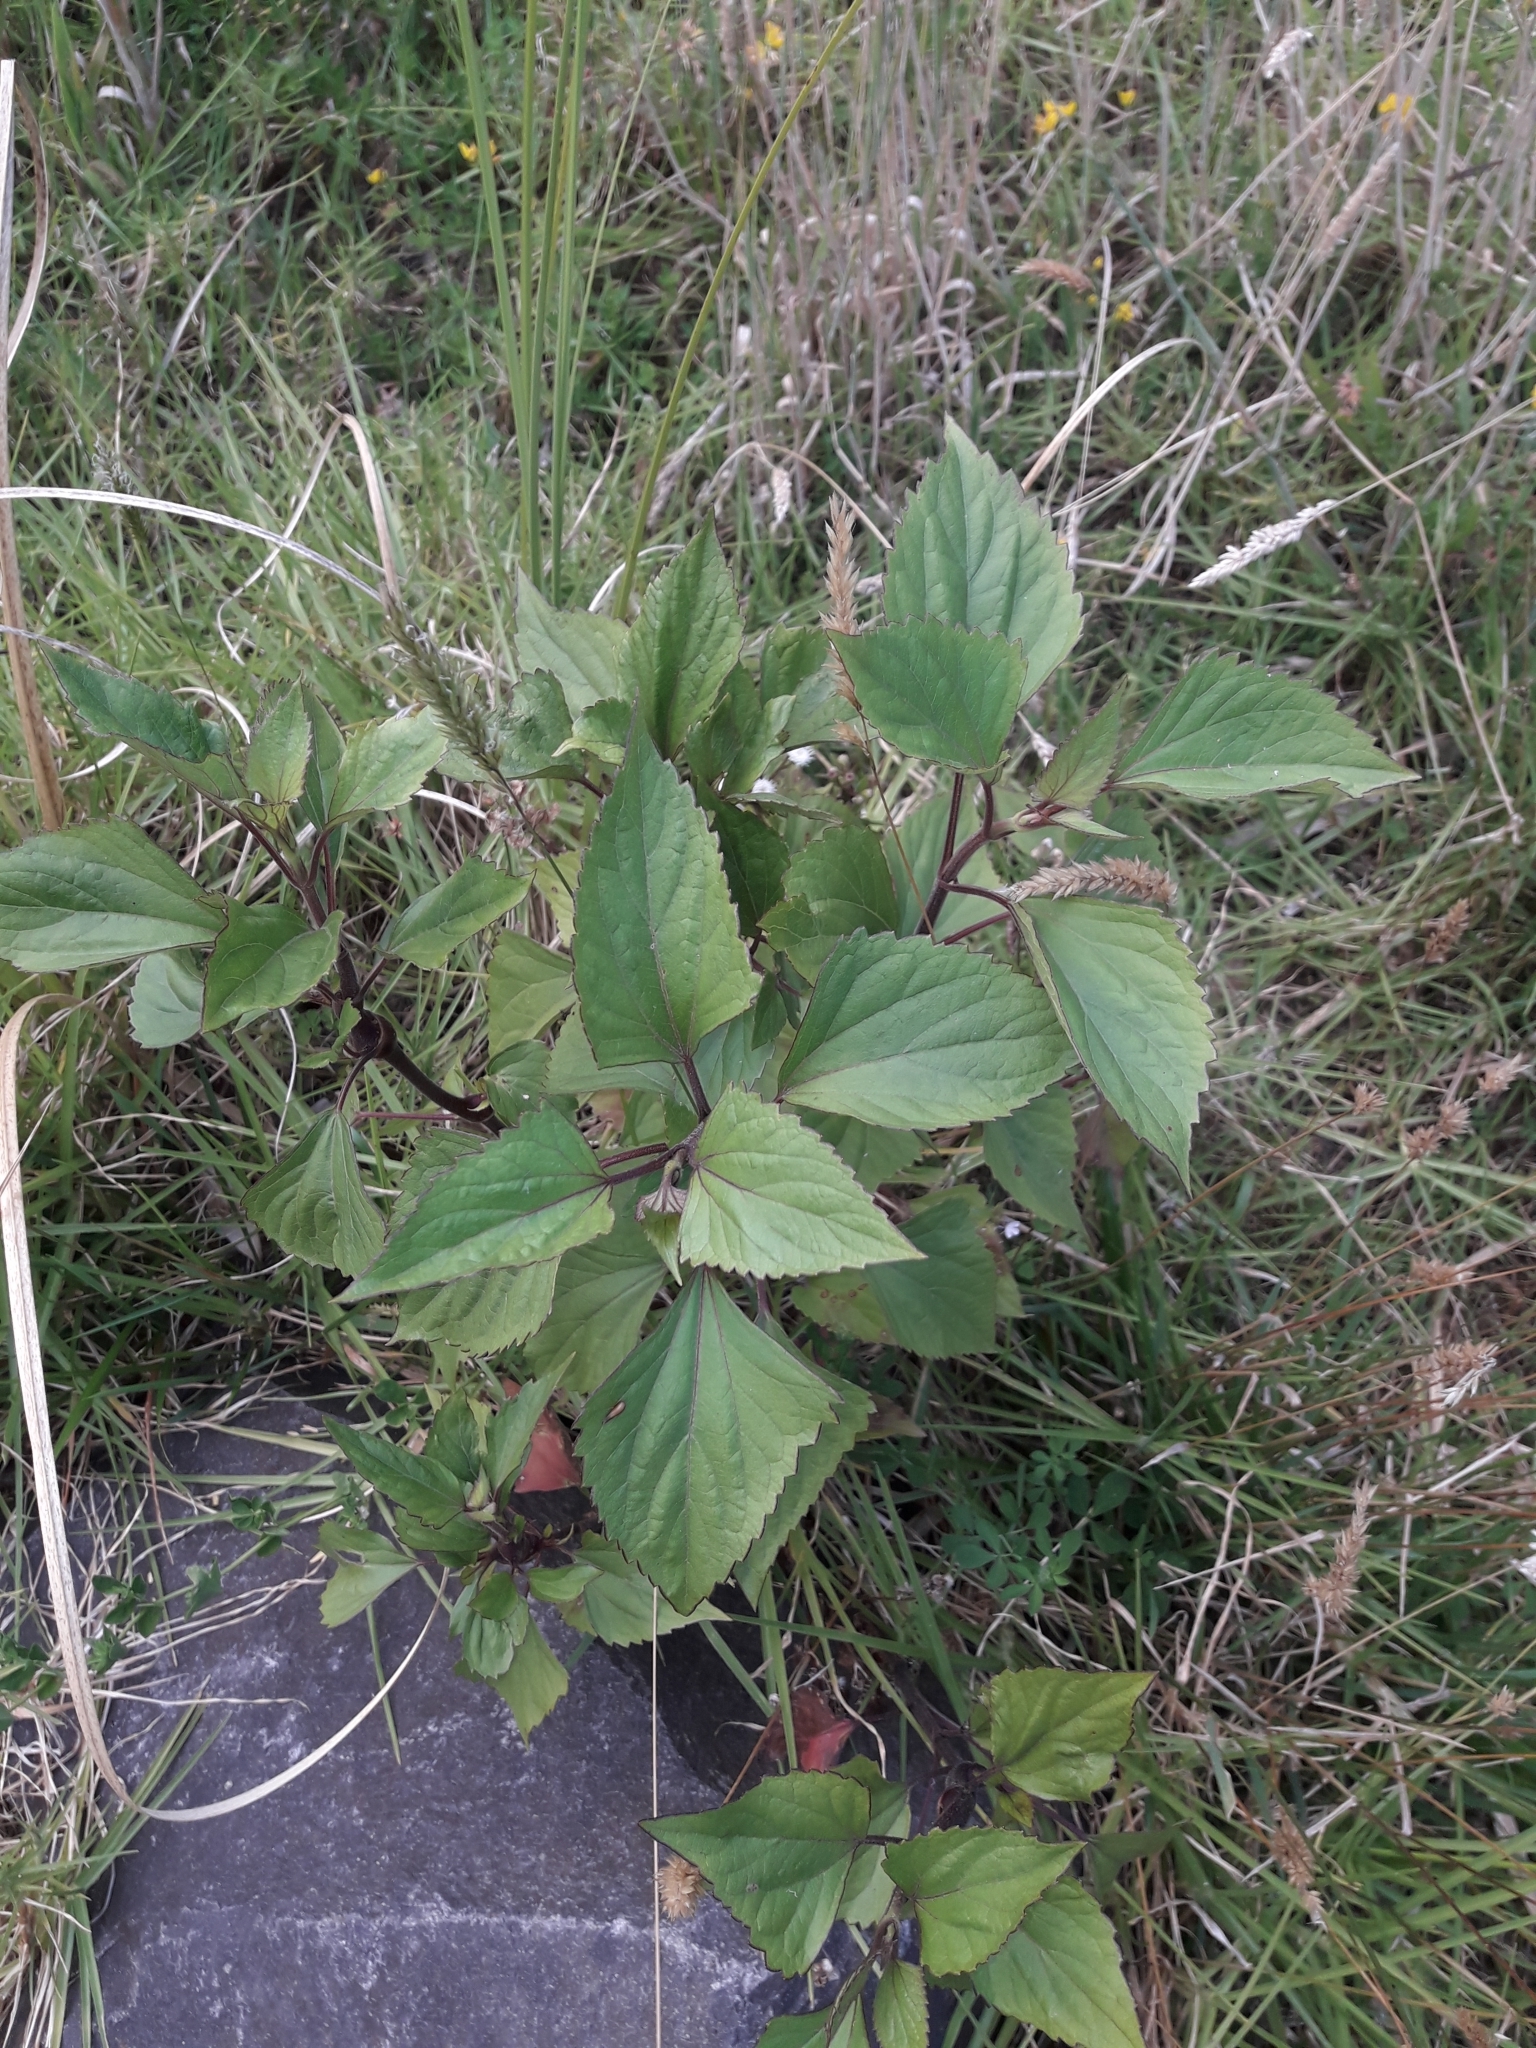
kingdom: Plantae
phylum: Tracheophyta
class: Magnoliopsida
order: Asterales
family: Asteraceae
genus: Ageratina
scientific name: Ageratina adenophora
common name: Sticky snakeroot
